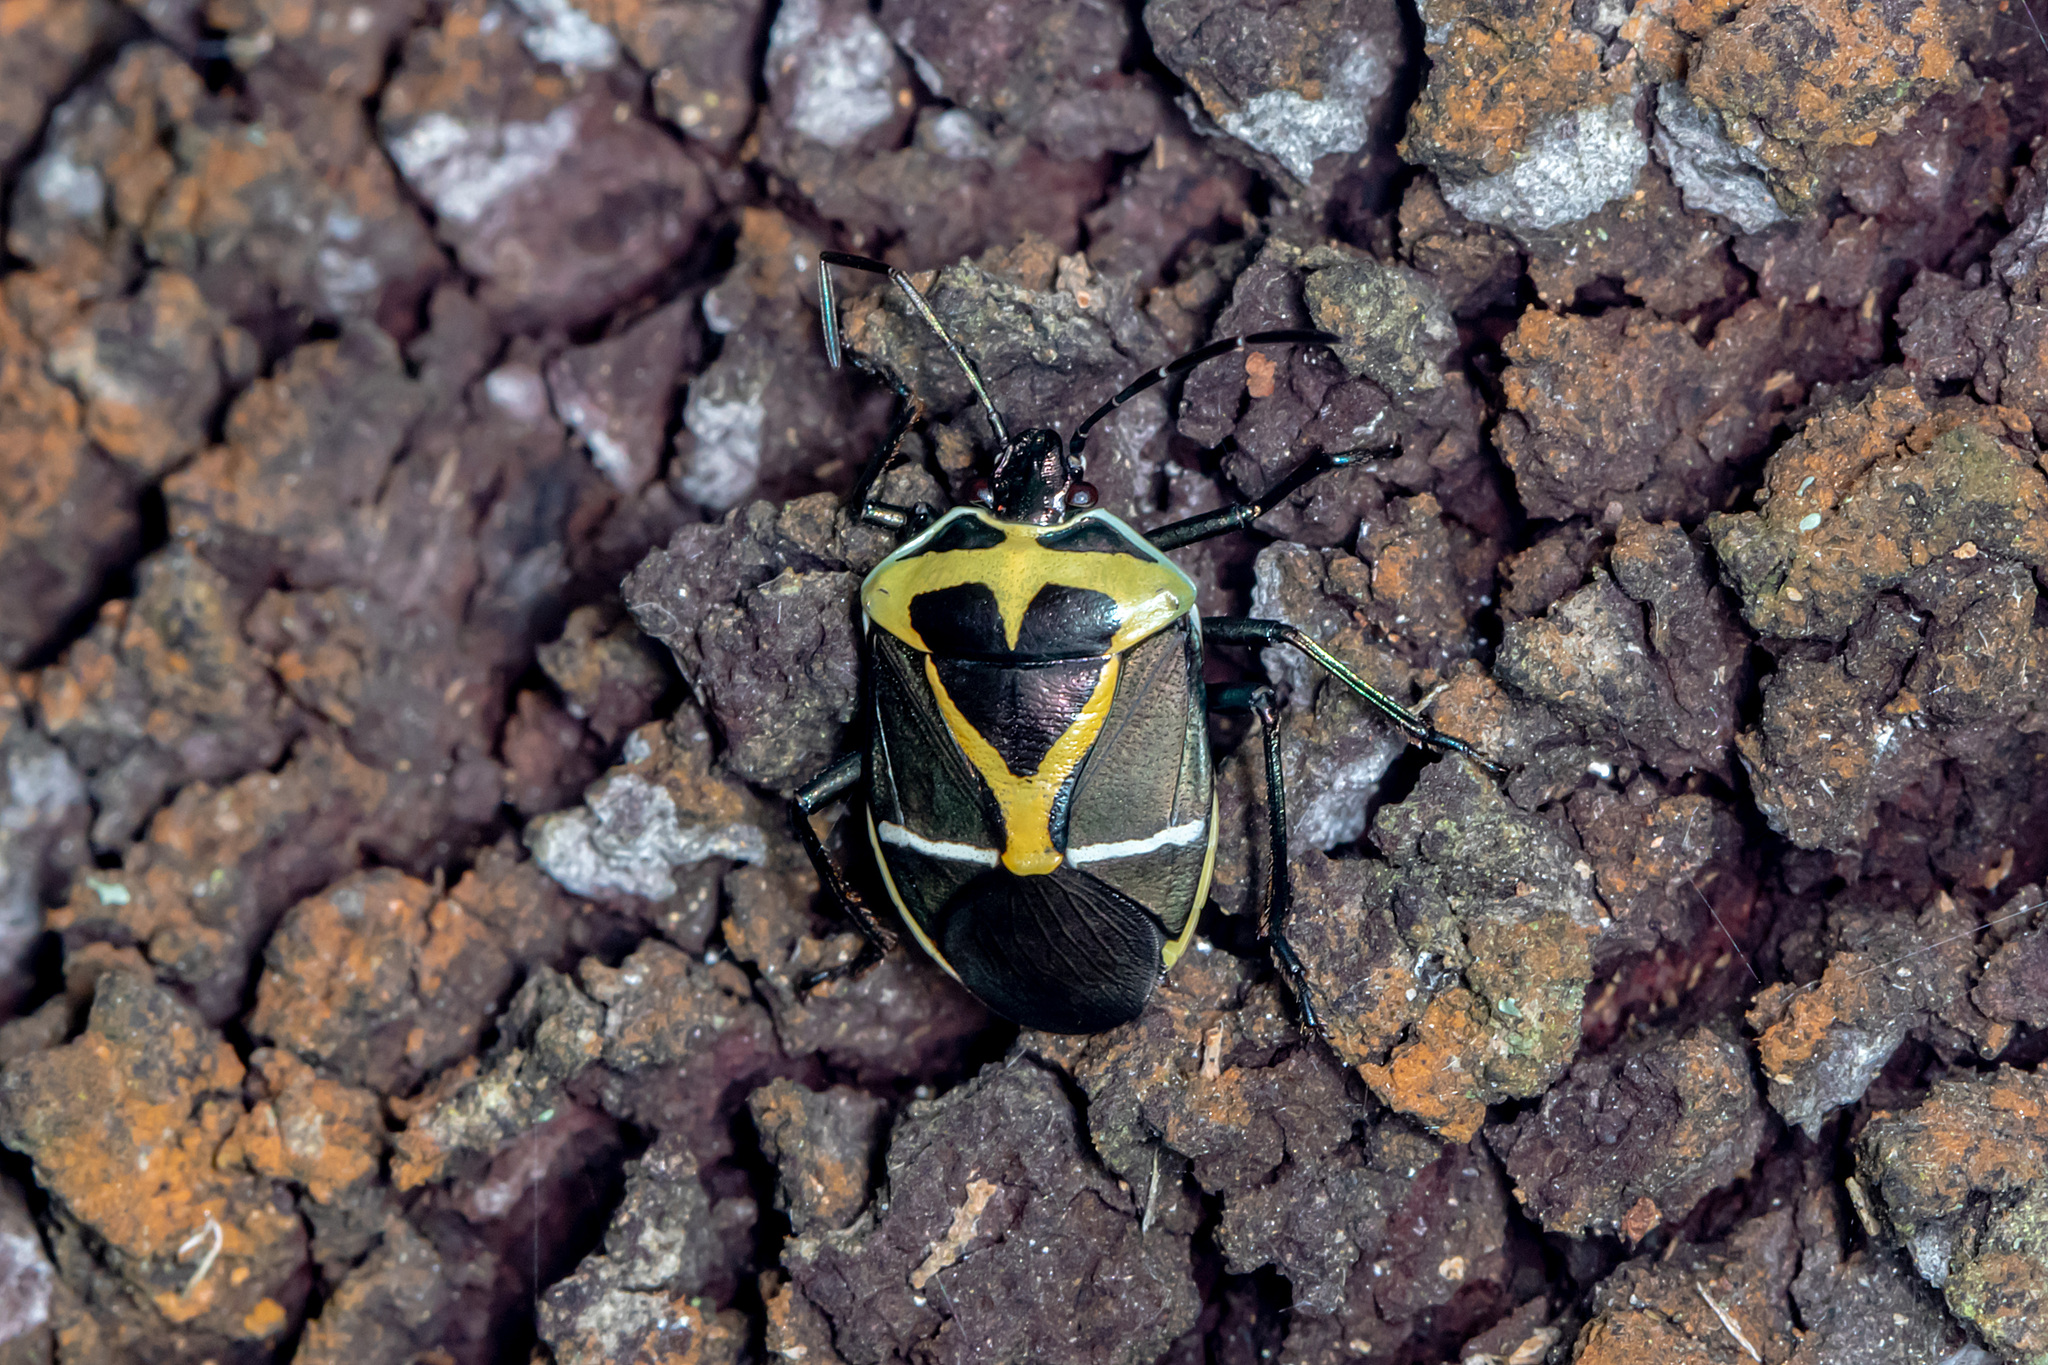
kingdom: Animalia
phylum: Arthropoda
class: Insecta
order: Hemiptera
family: Pentatomidae
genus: Commius
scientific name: Commius
